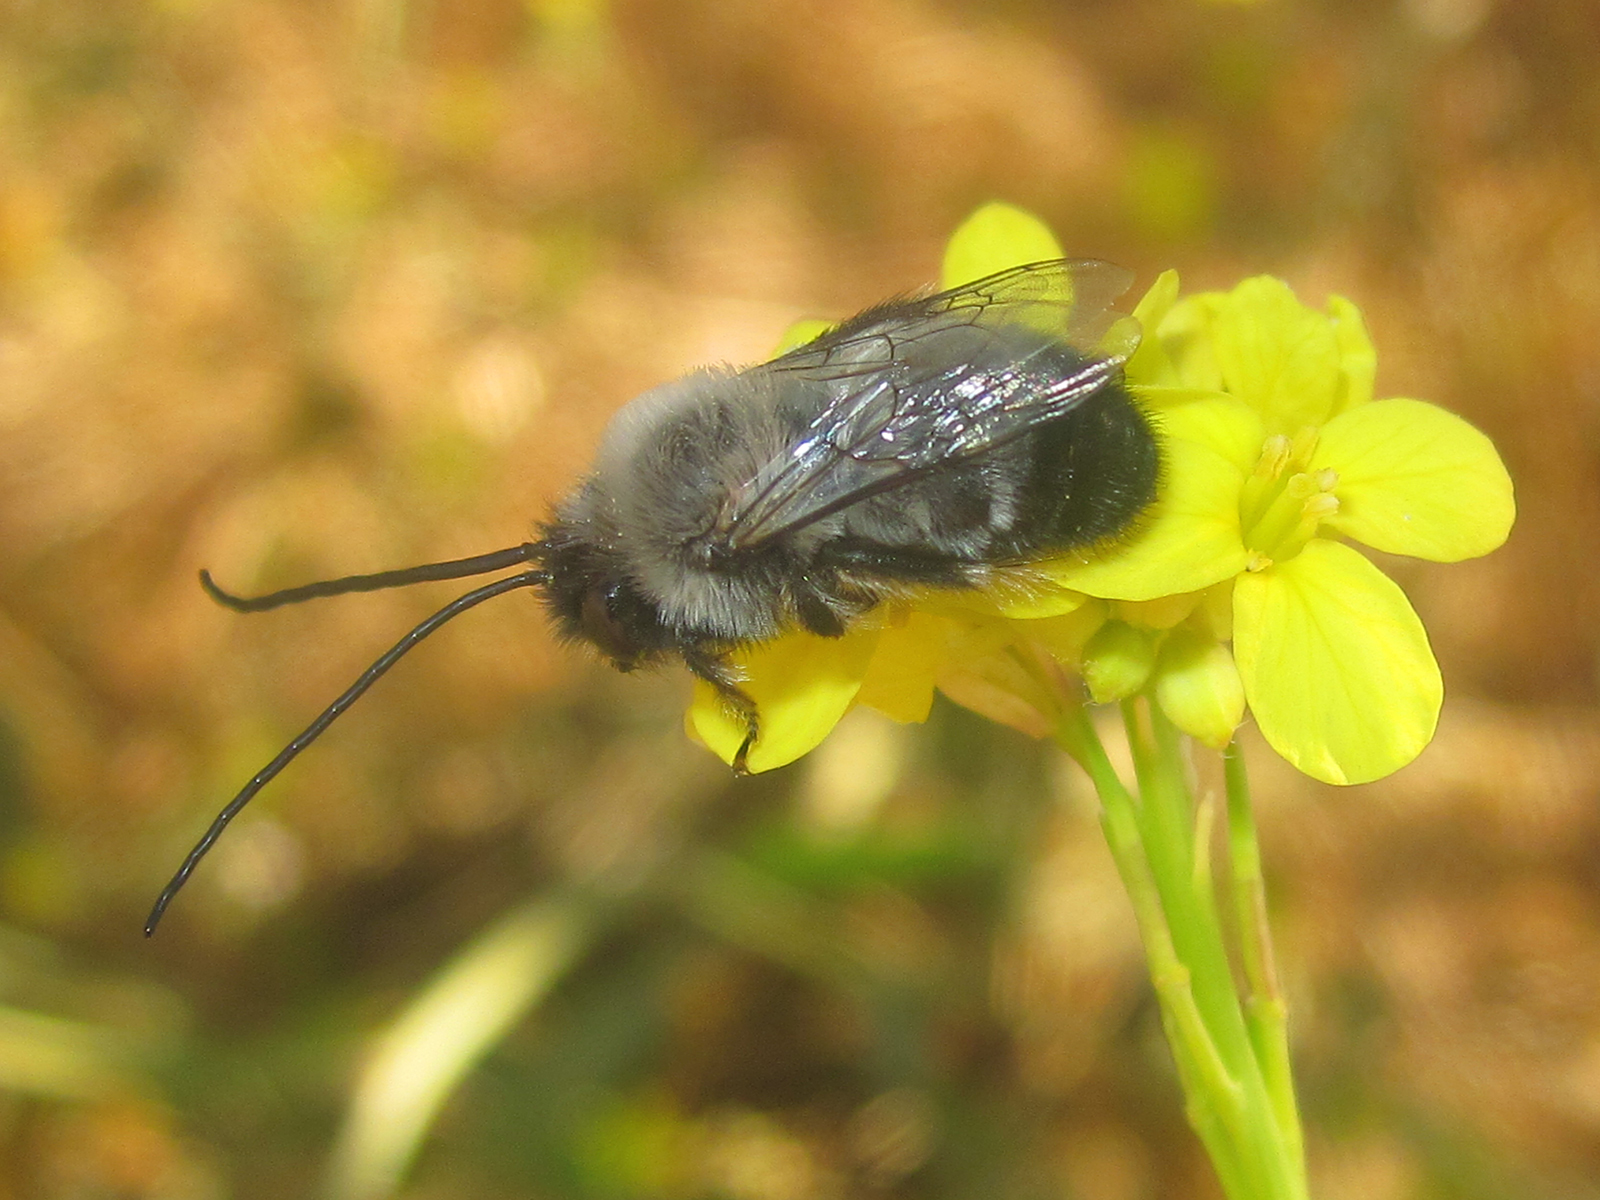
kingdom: Animalia
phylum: Arthropoda
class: Insecta
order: Hymenoptera
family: Apidae
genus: Svastrides
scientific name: Svastrides melanura
